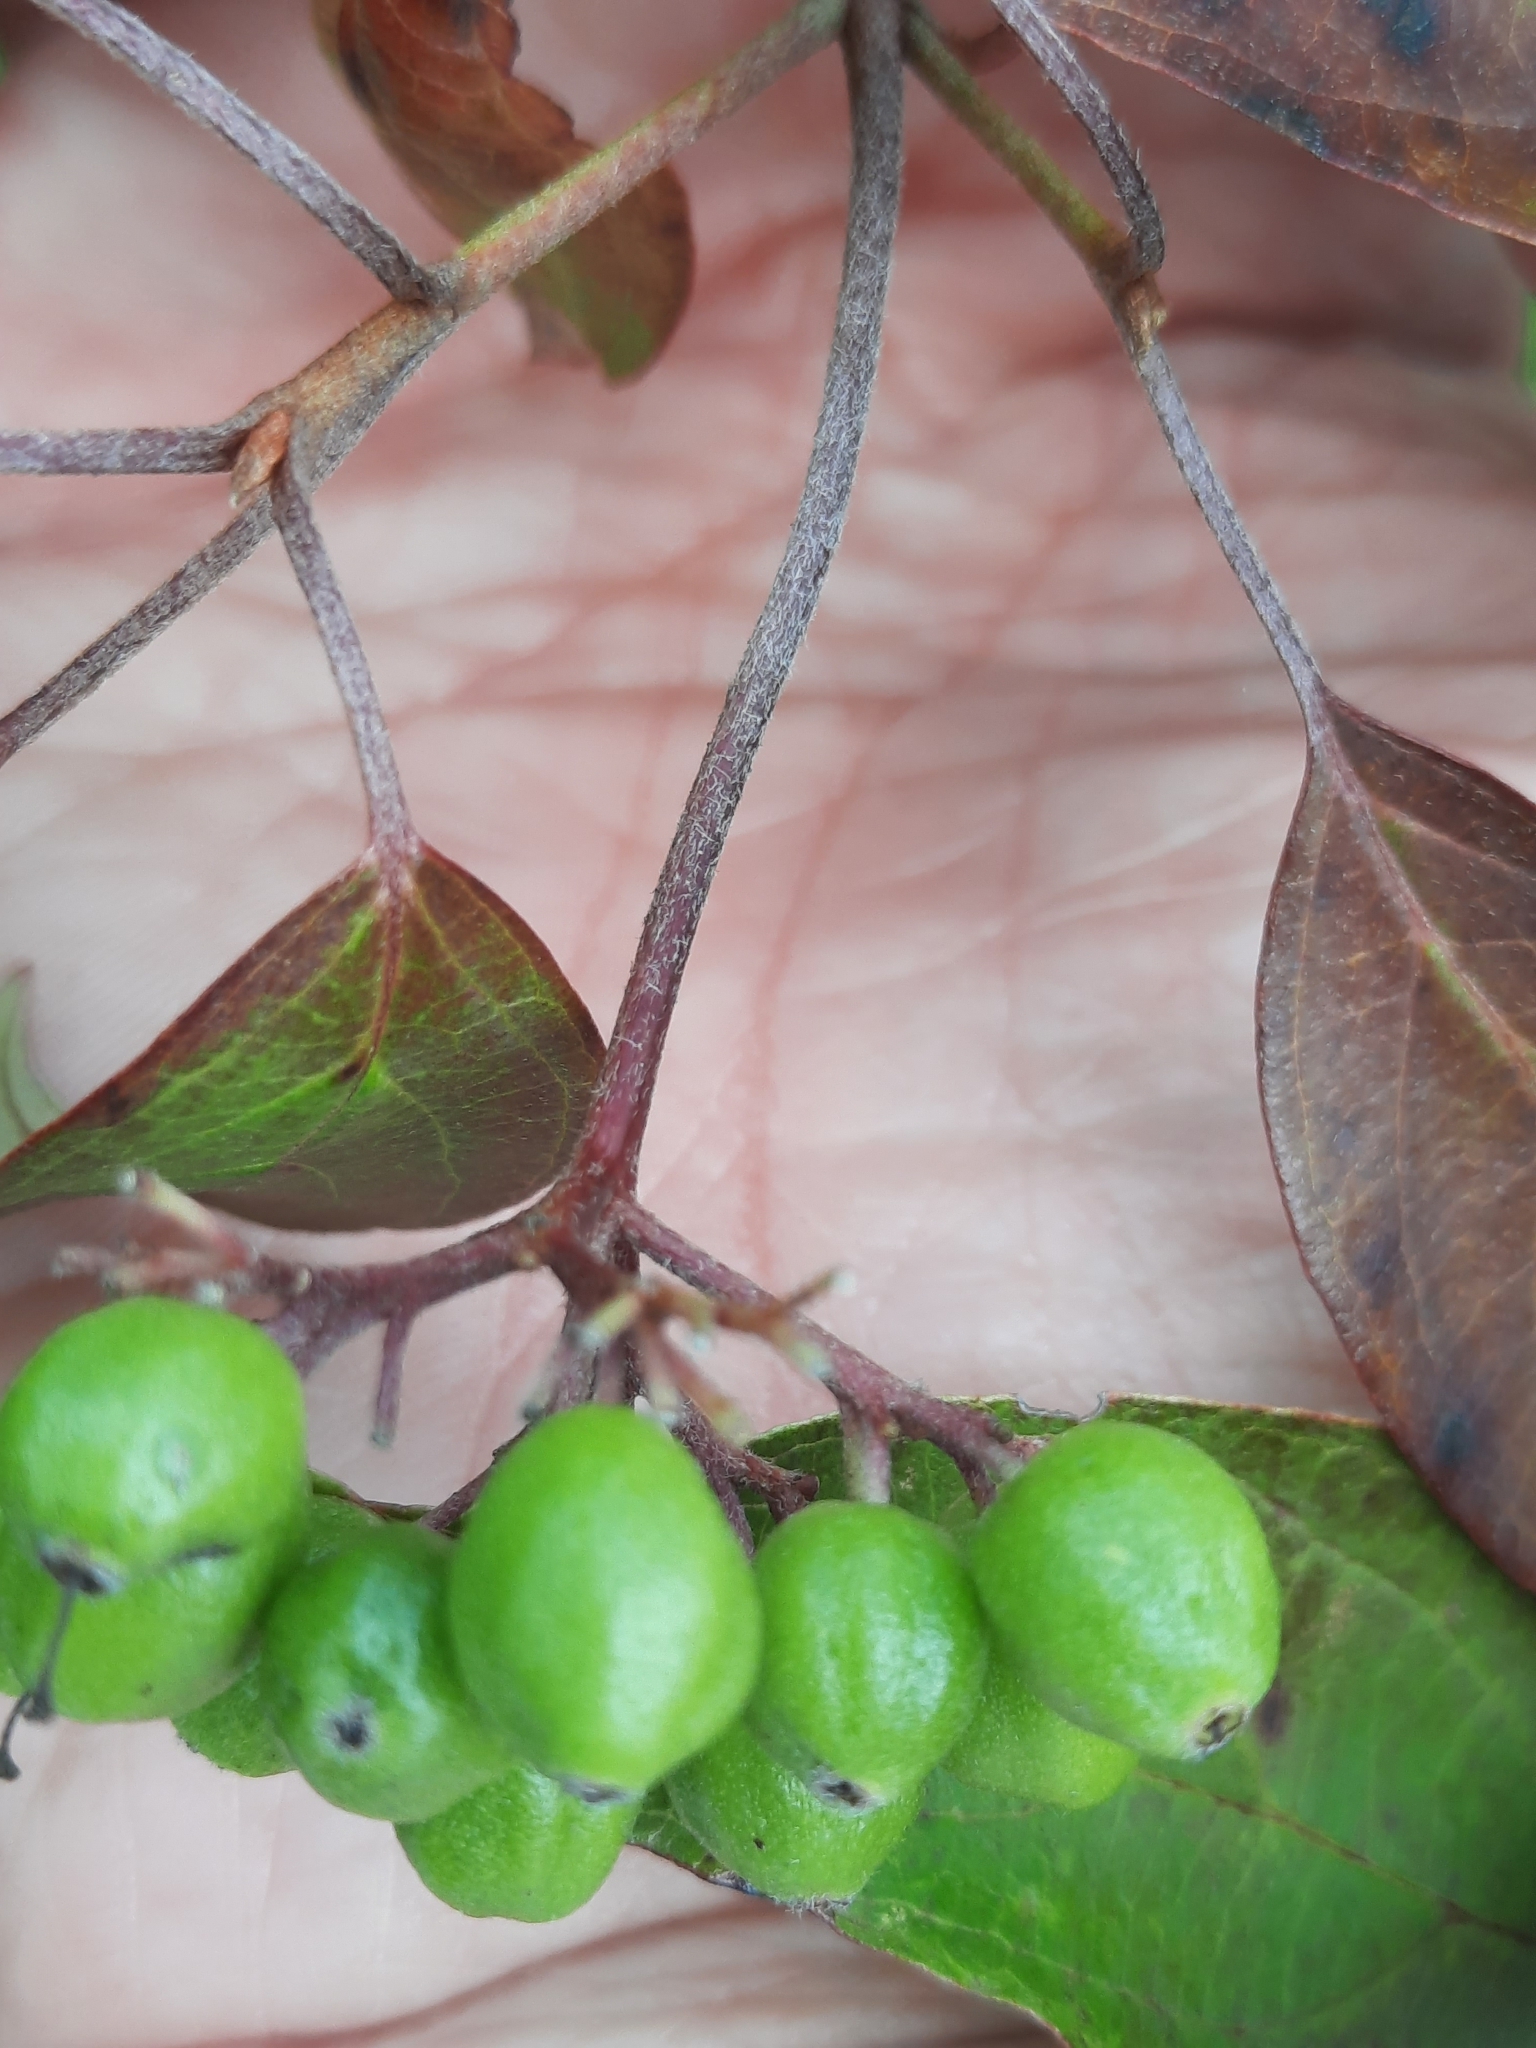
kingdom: Plantae
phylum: Tracheophyta
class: Magnoliopsida
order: Cornales
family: Cornaceae
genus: Cornus
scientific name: Cornus amomum
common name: Silky dogwood
